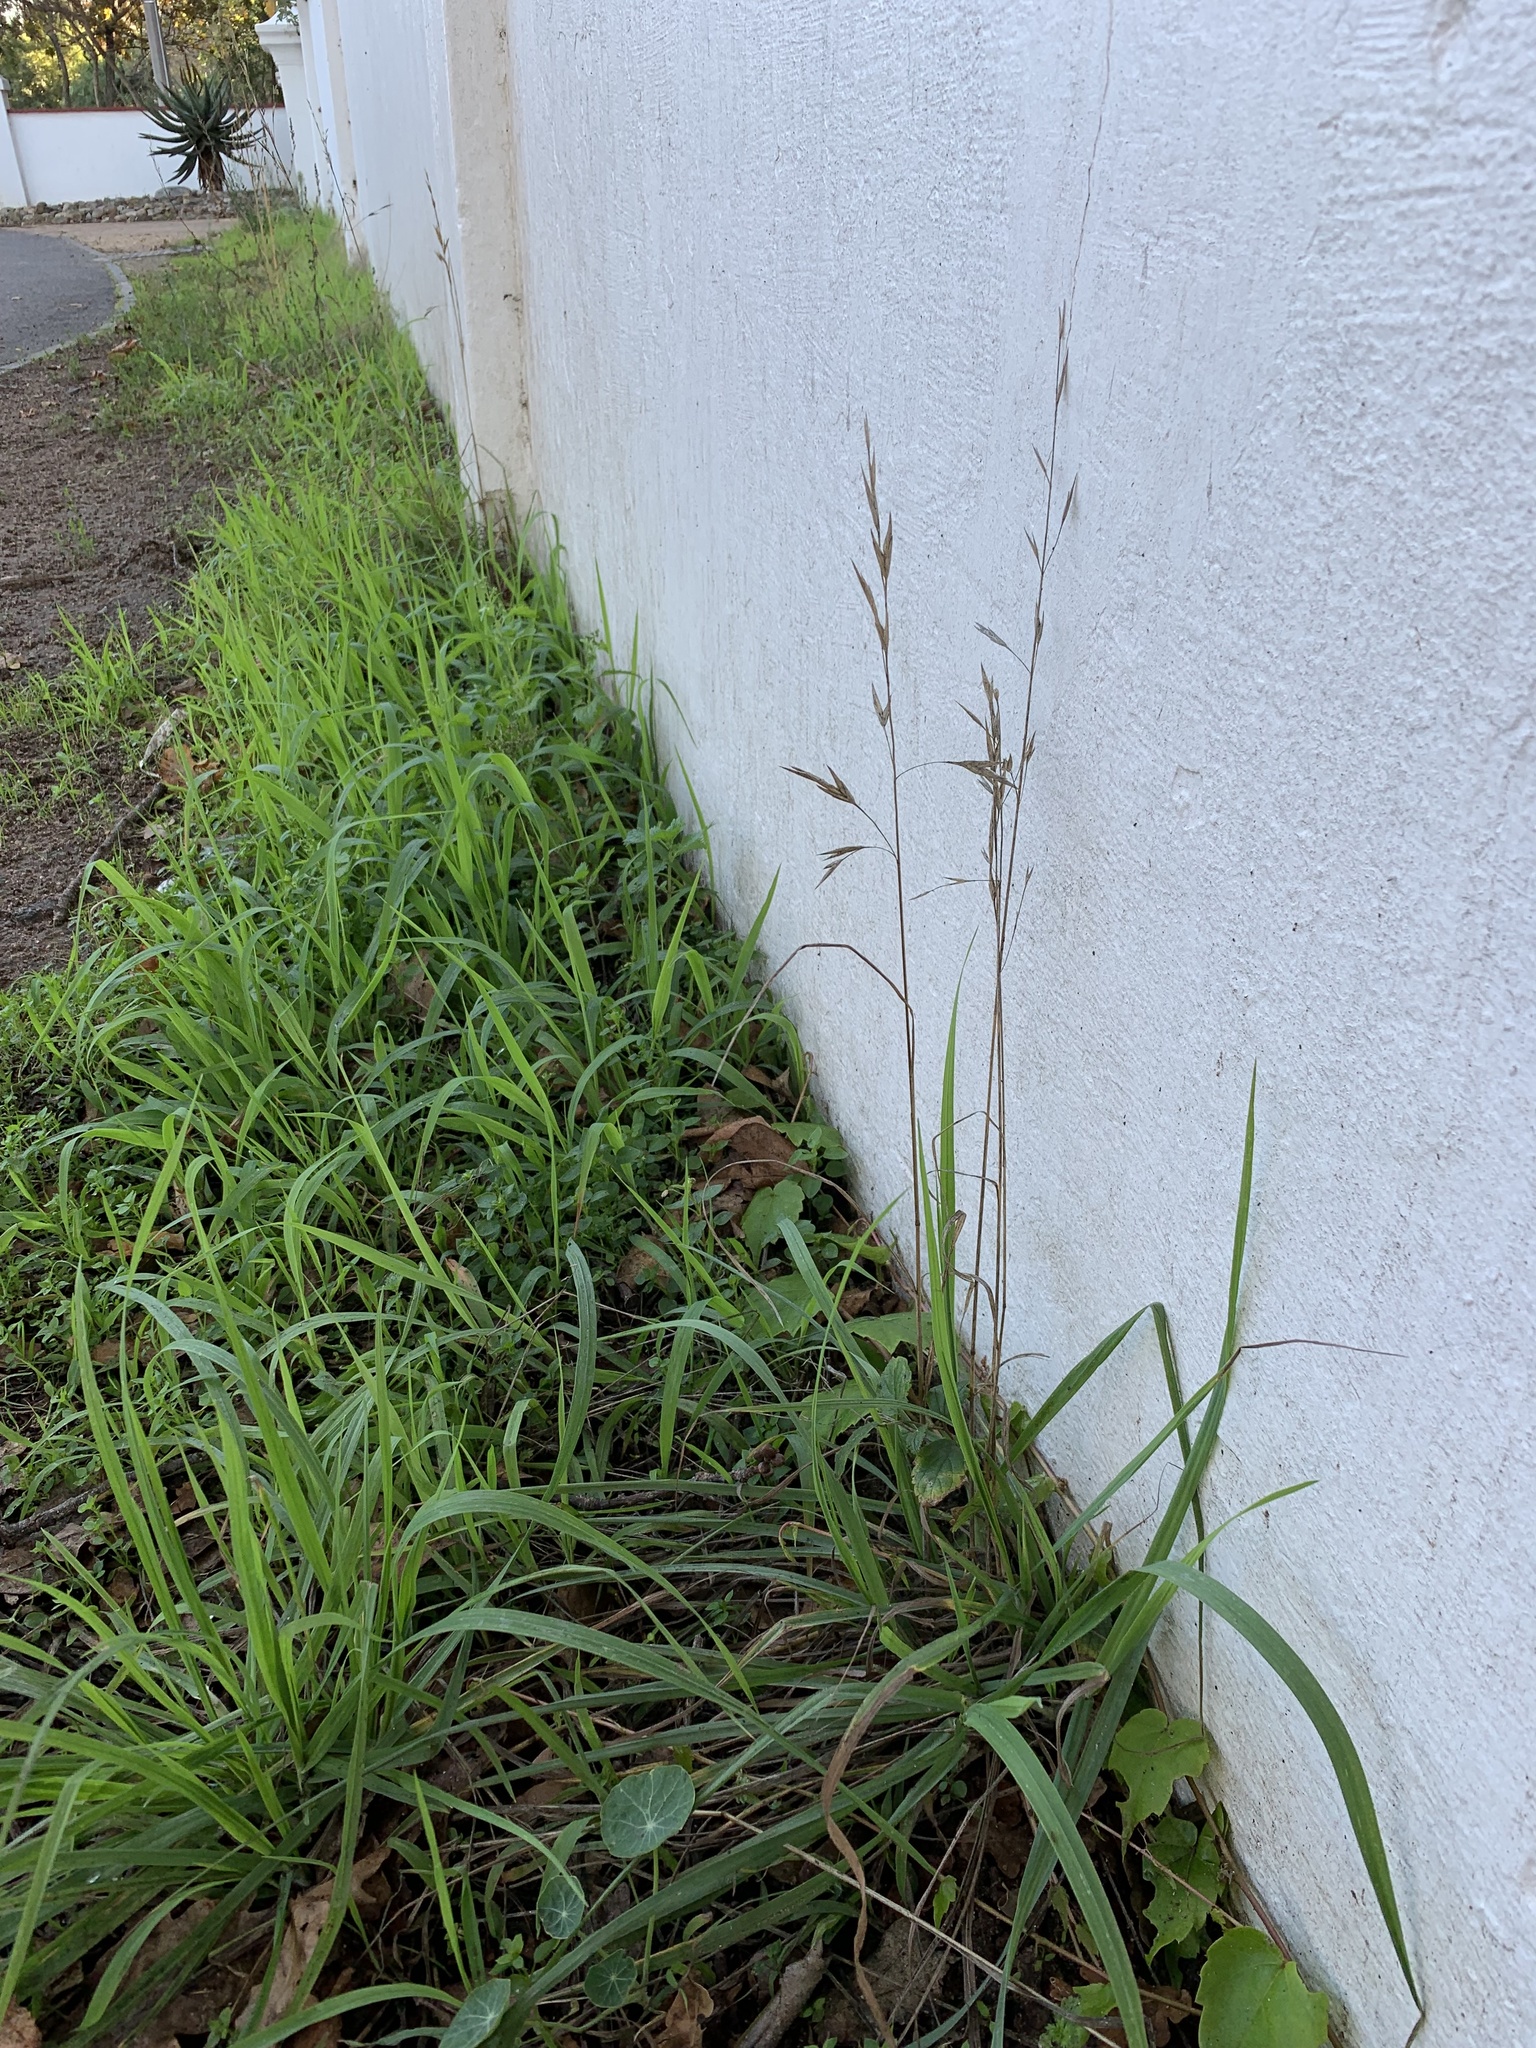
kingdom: Plantae
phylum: Tracheophyta
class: Liliopsida
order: Poales
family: Poaceae
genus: Bromus
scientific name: Bromus inermis
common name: Smooth brome
